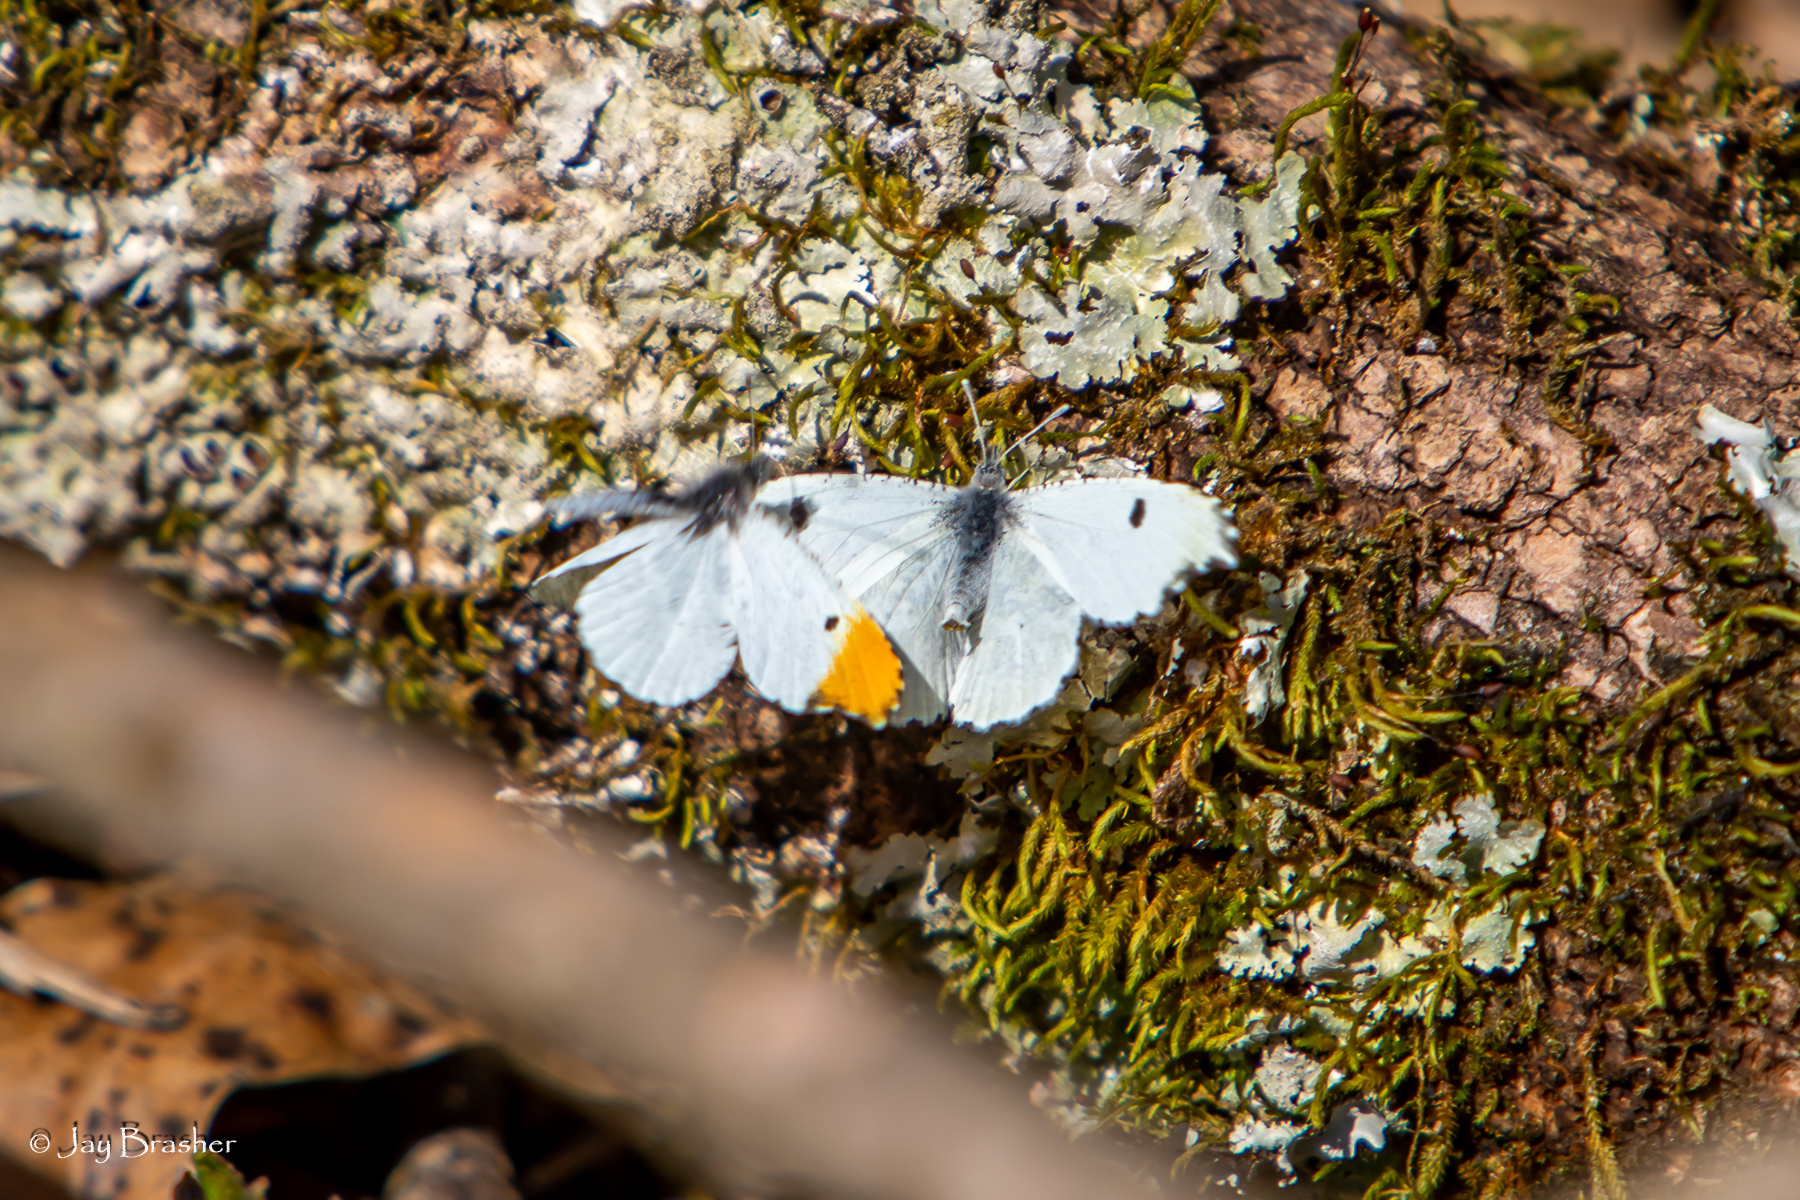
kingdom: Animalia
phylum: Arthropoda
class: Insecta
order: Lepidoptera
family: Pieridae
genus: Anthocharis
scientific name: Anthocharis midea
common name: Falcate orangetip
